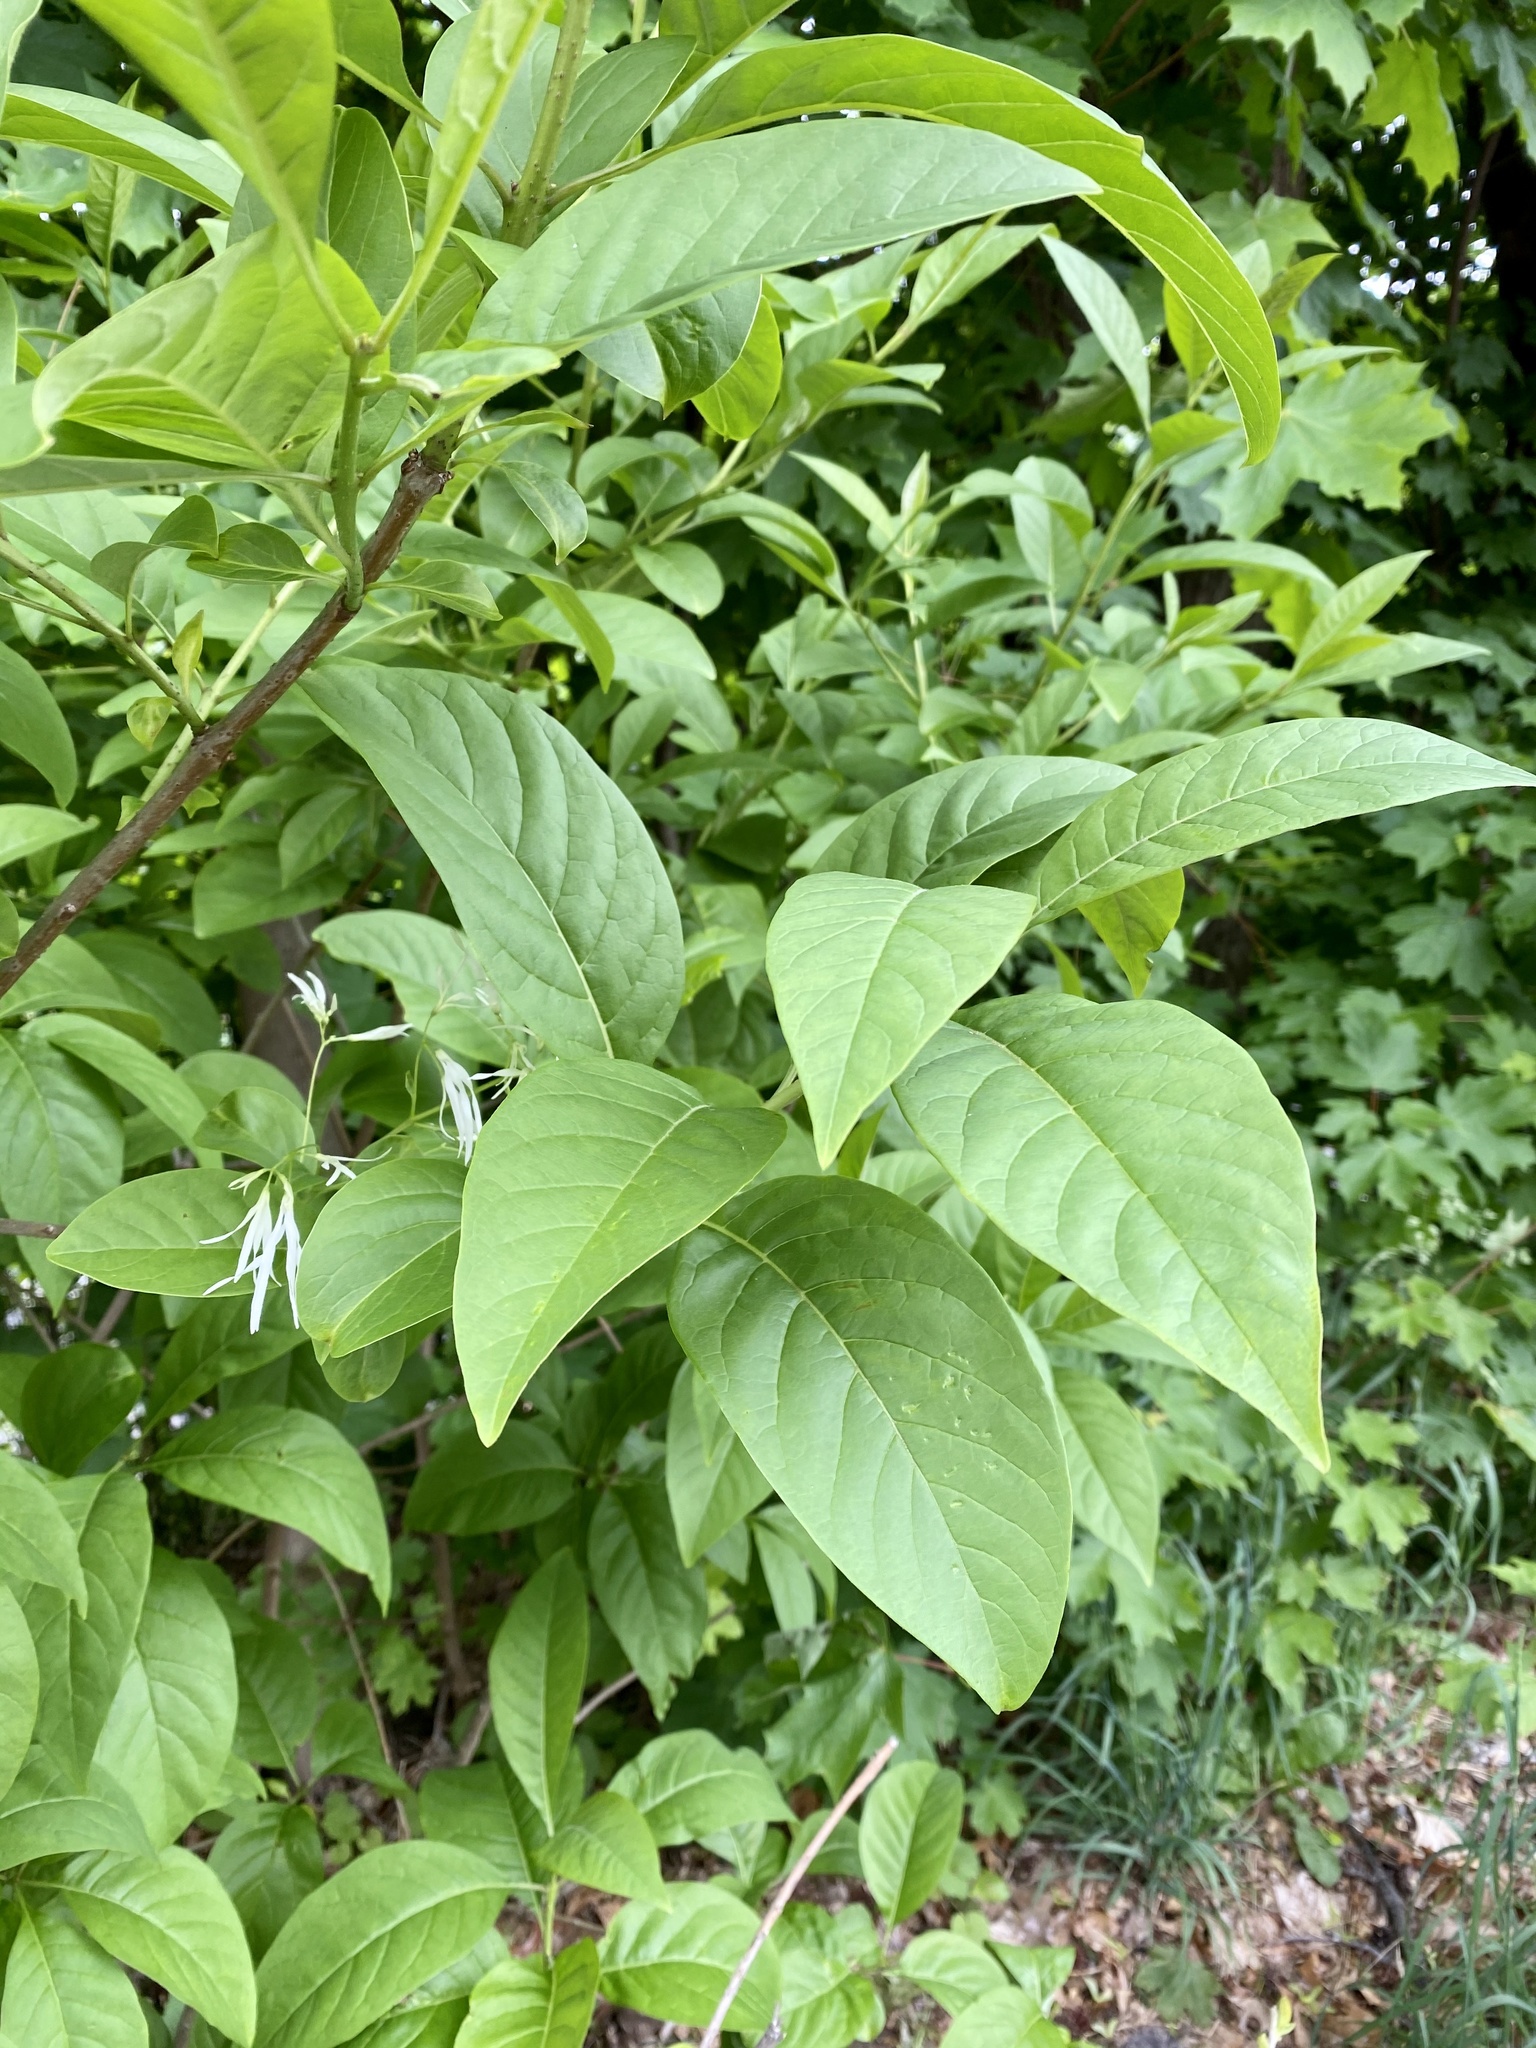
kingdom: Plantae
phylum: Tracheophyta
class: Magnoliopsida
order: Lamiales
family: Oleaceae
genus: Chionanthus
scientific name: Chionanthus virginicus
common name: American fringetree
